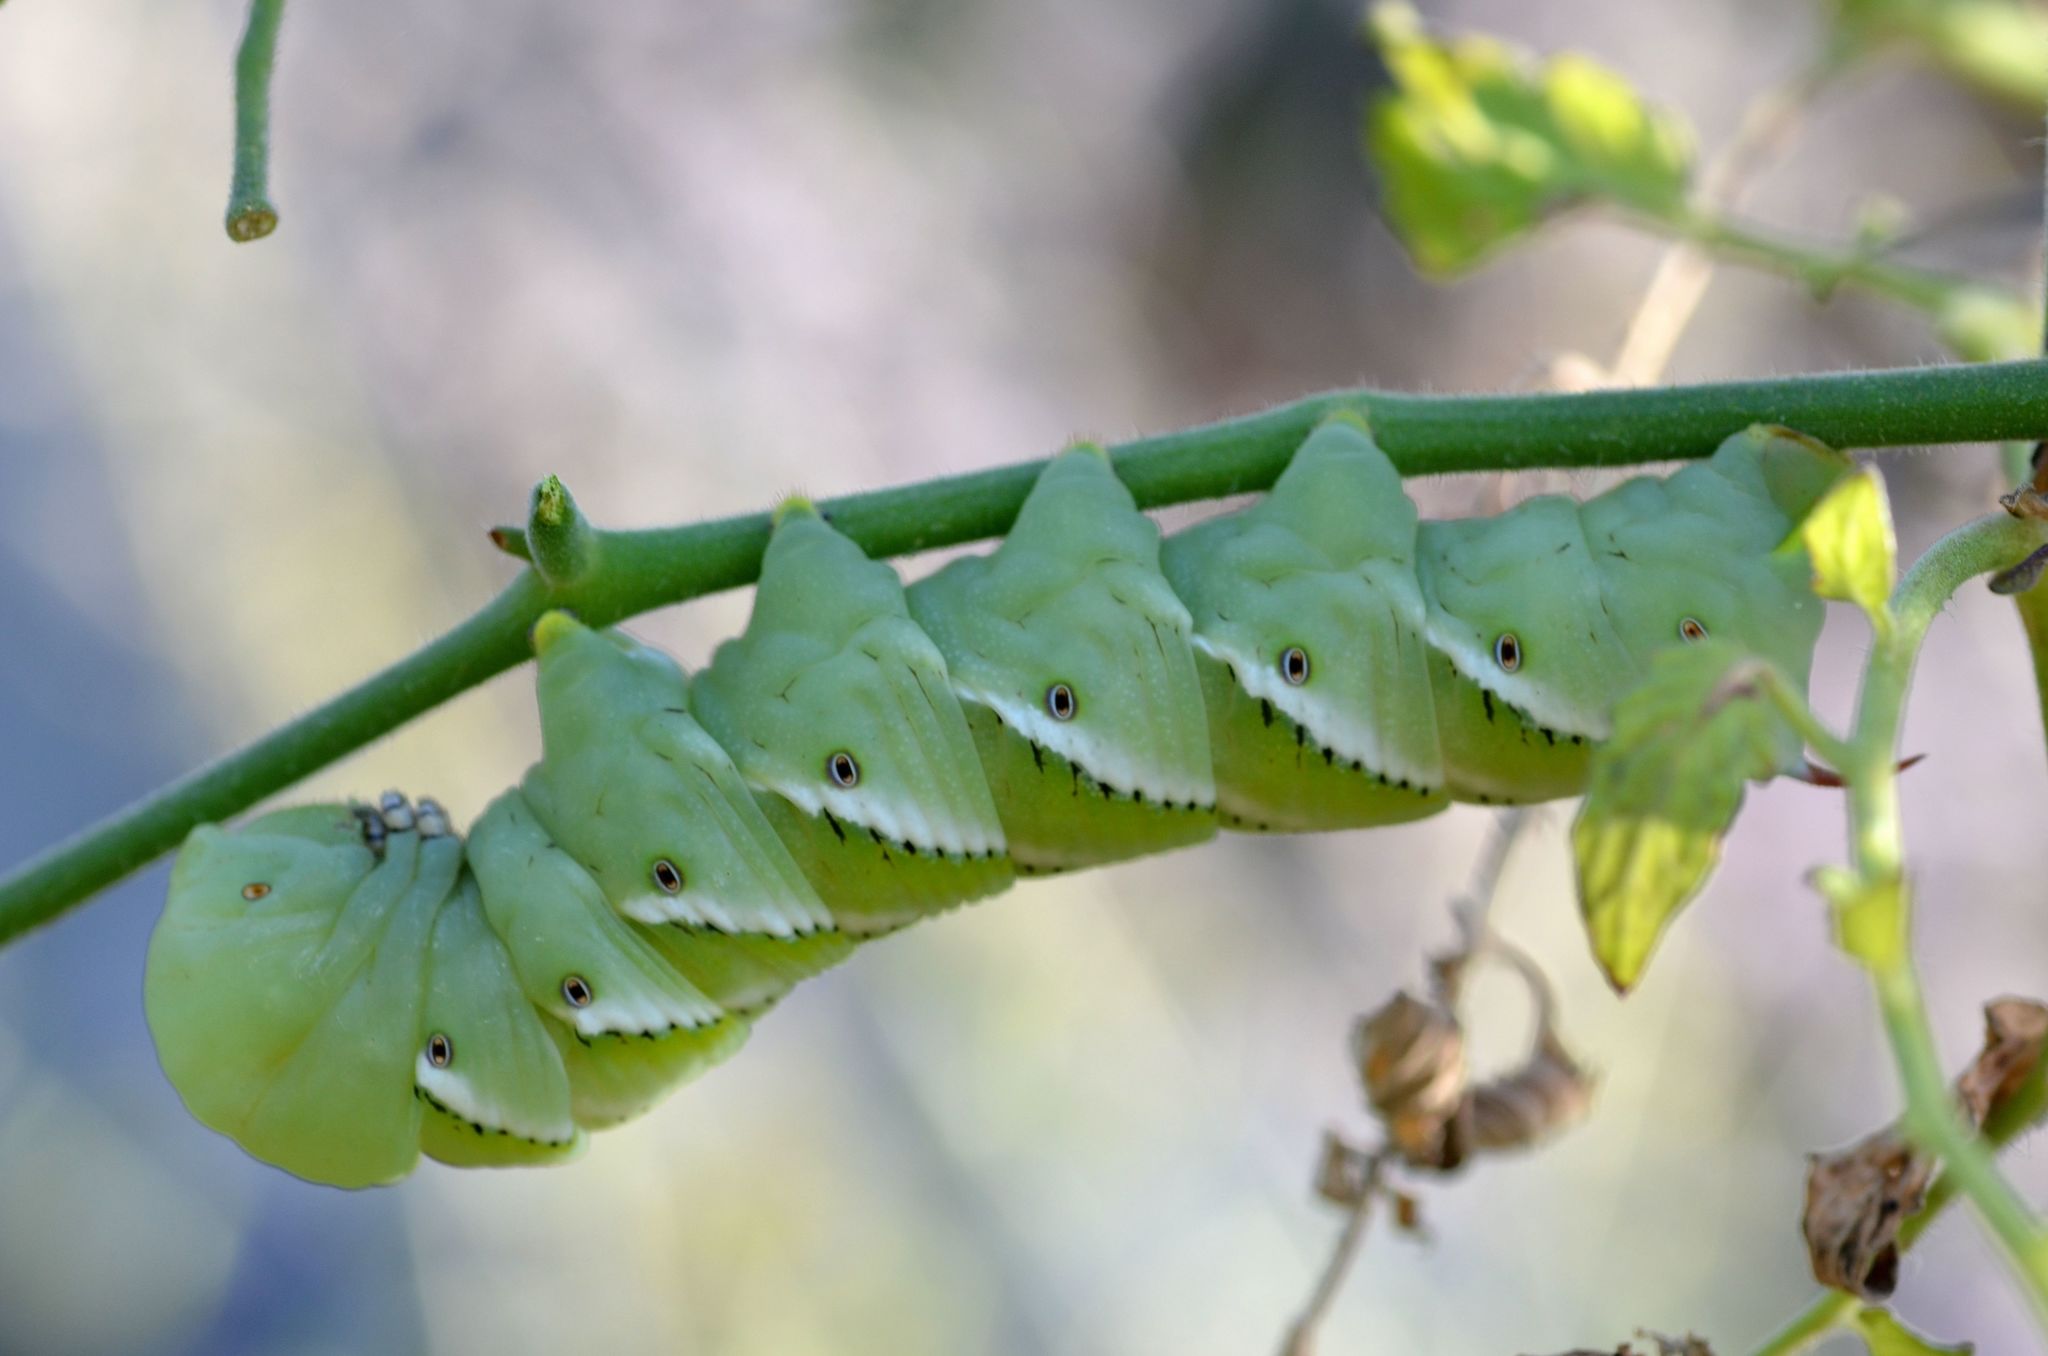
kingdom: Animalia
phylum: Arthropoda
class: Insecta
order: Lepidoptera
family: Sphingidae
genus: Manduca
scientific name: Manduca sexta
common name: Carolina sphinx
